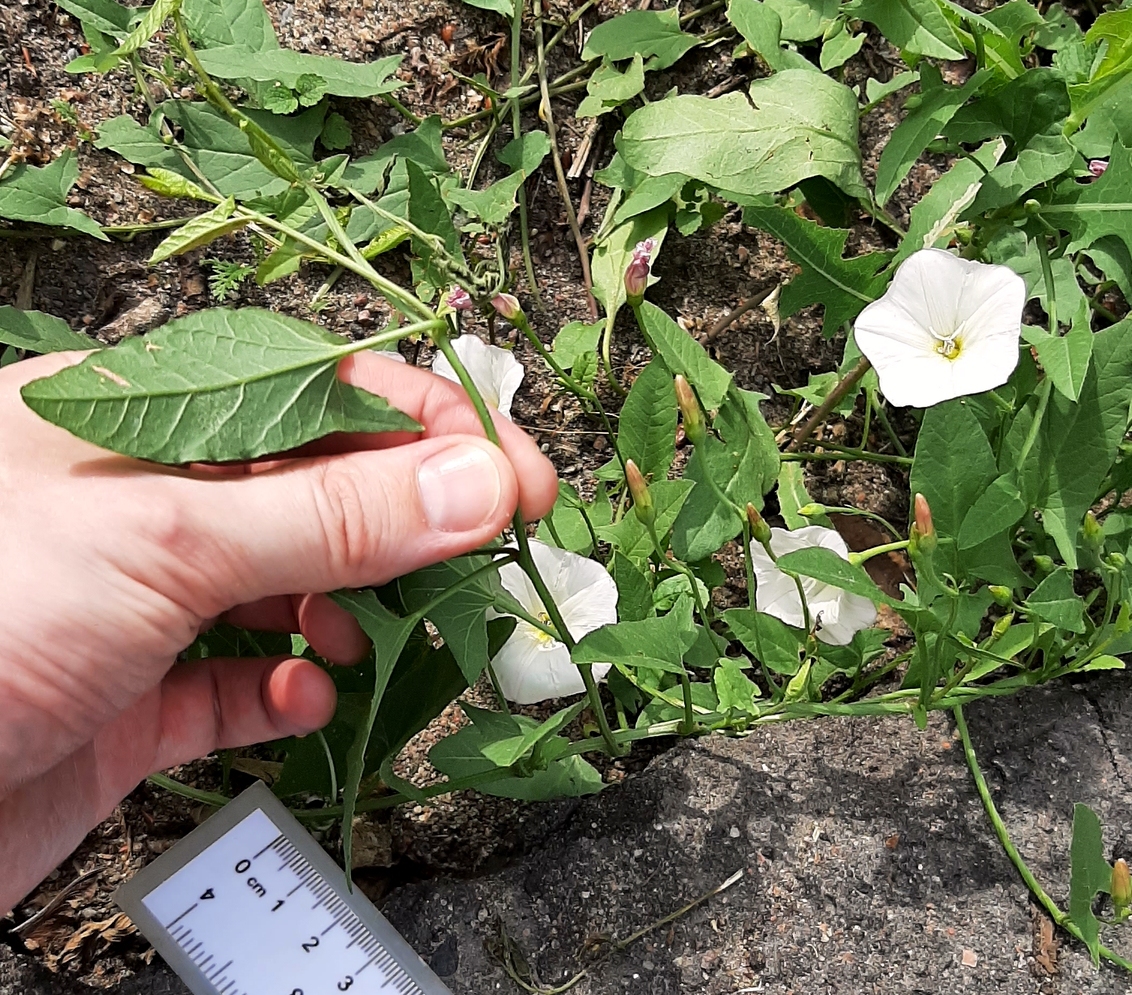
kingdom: Plantae
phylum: Tracheophyta
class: Magnoliopsida
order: Solanales
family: Convolvulaceae
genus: Convolvulus
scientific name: Convolvulus arvensis
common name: Field bindweed
